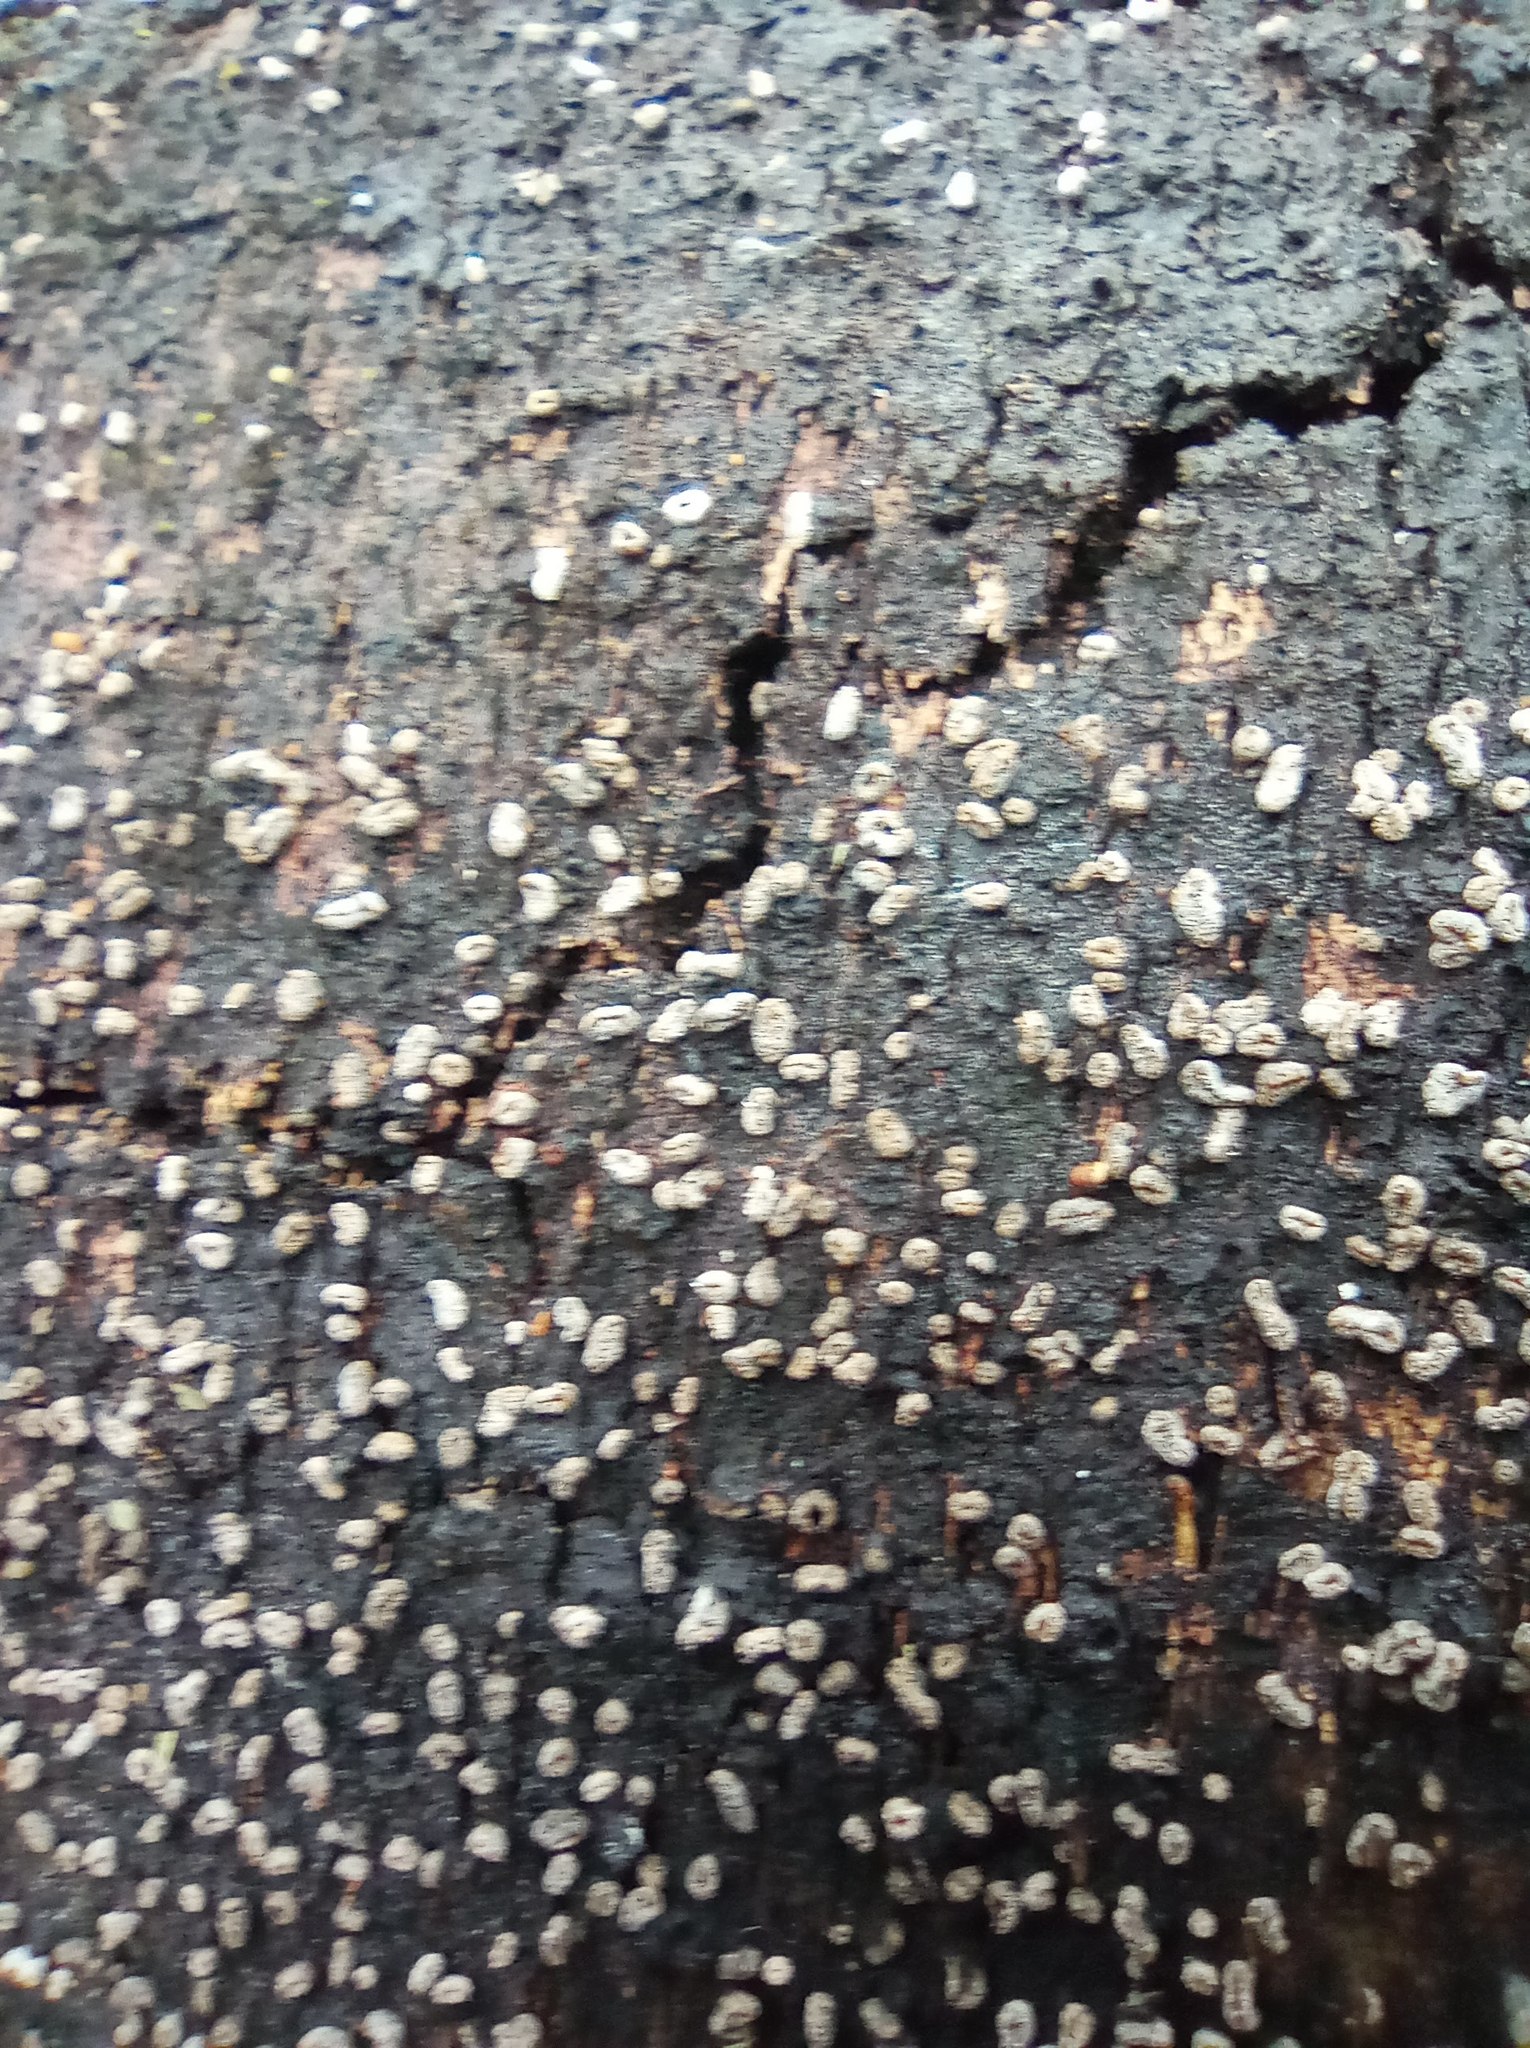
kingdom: Fungi
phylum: Ascomycota
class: Leotiomycetes
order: Helotiales
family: Sclerotiniaceae
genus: Sclerencoelia
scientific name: Sclerencoelia pruinosa
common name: Sooty-bark canker
